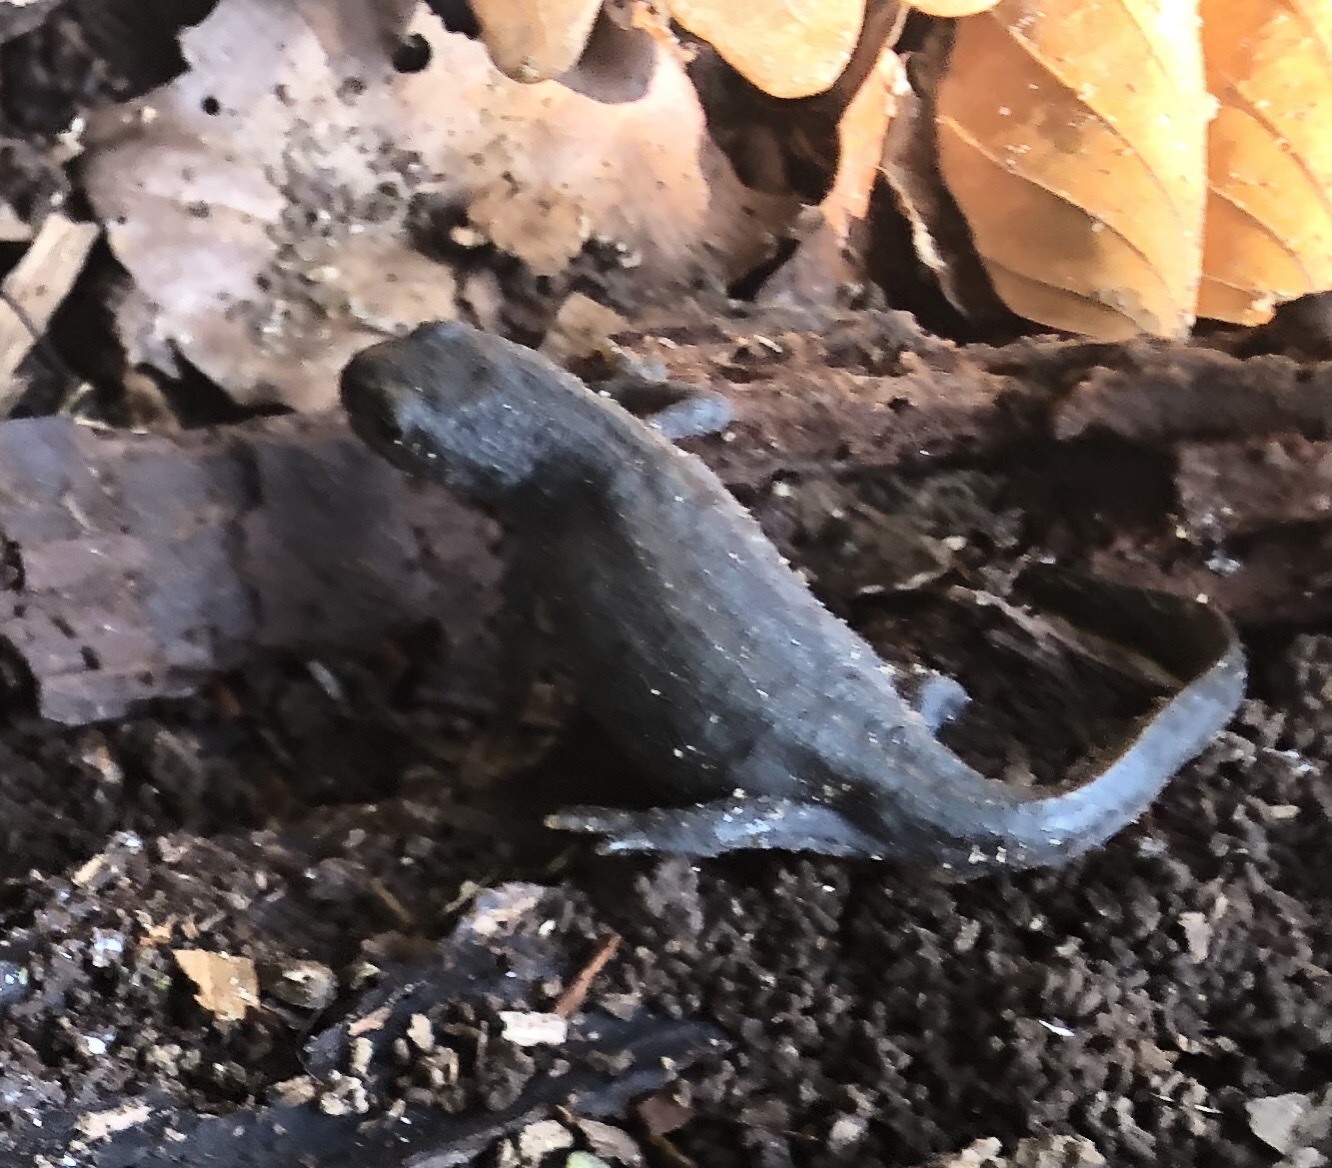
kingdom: Animalia
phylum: Chordata
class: Amphibia
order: Caudata
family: Salamandridae
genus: Ichthyosaura
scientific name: Ichthyosaura alpestris
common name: Alpine newt
